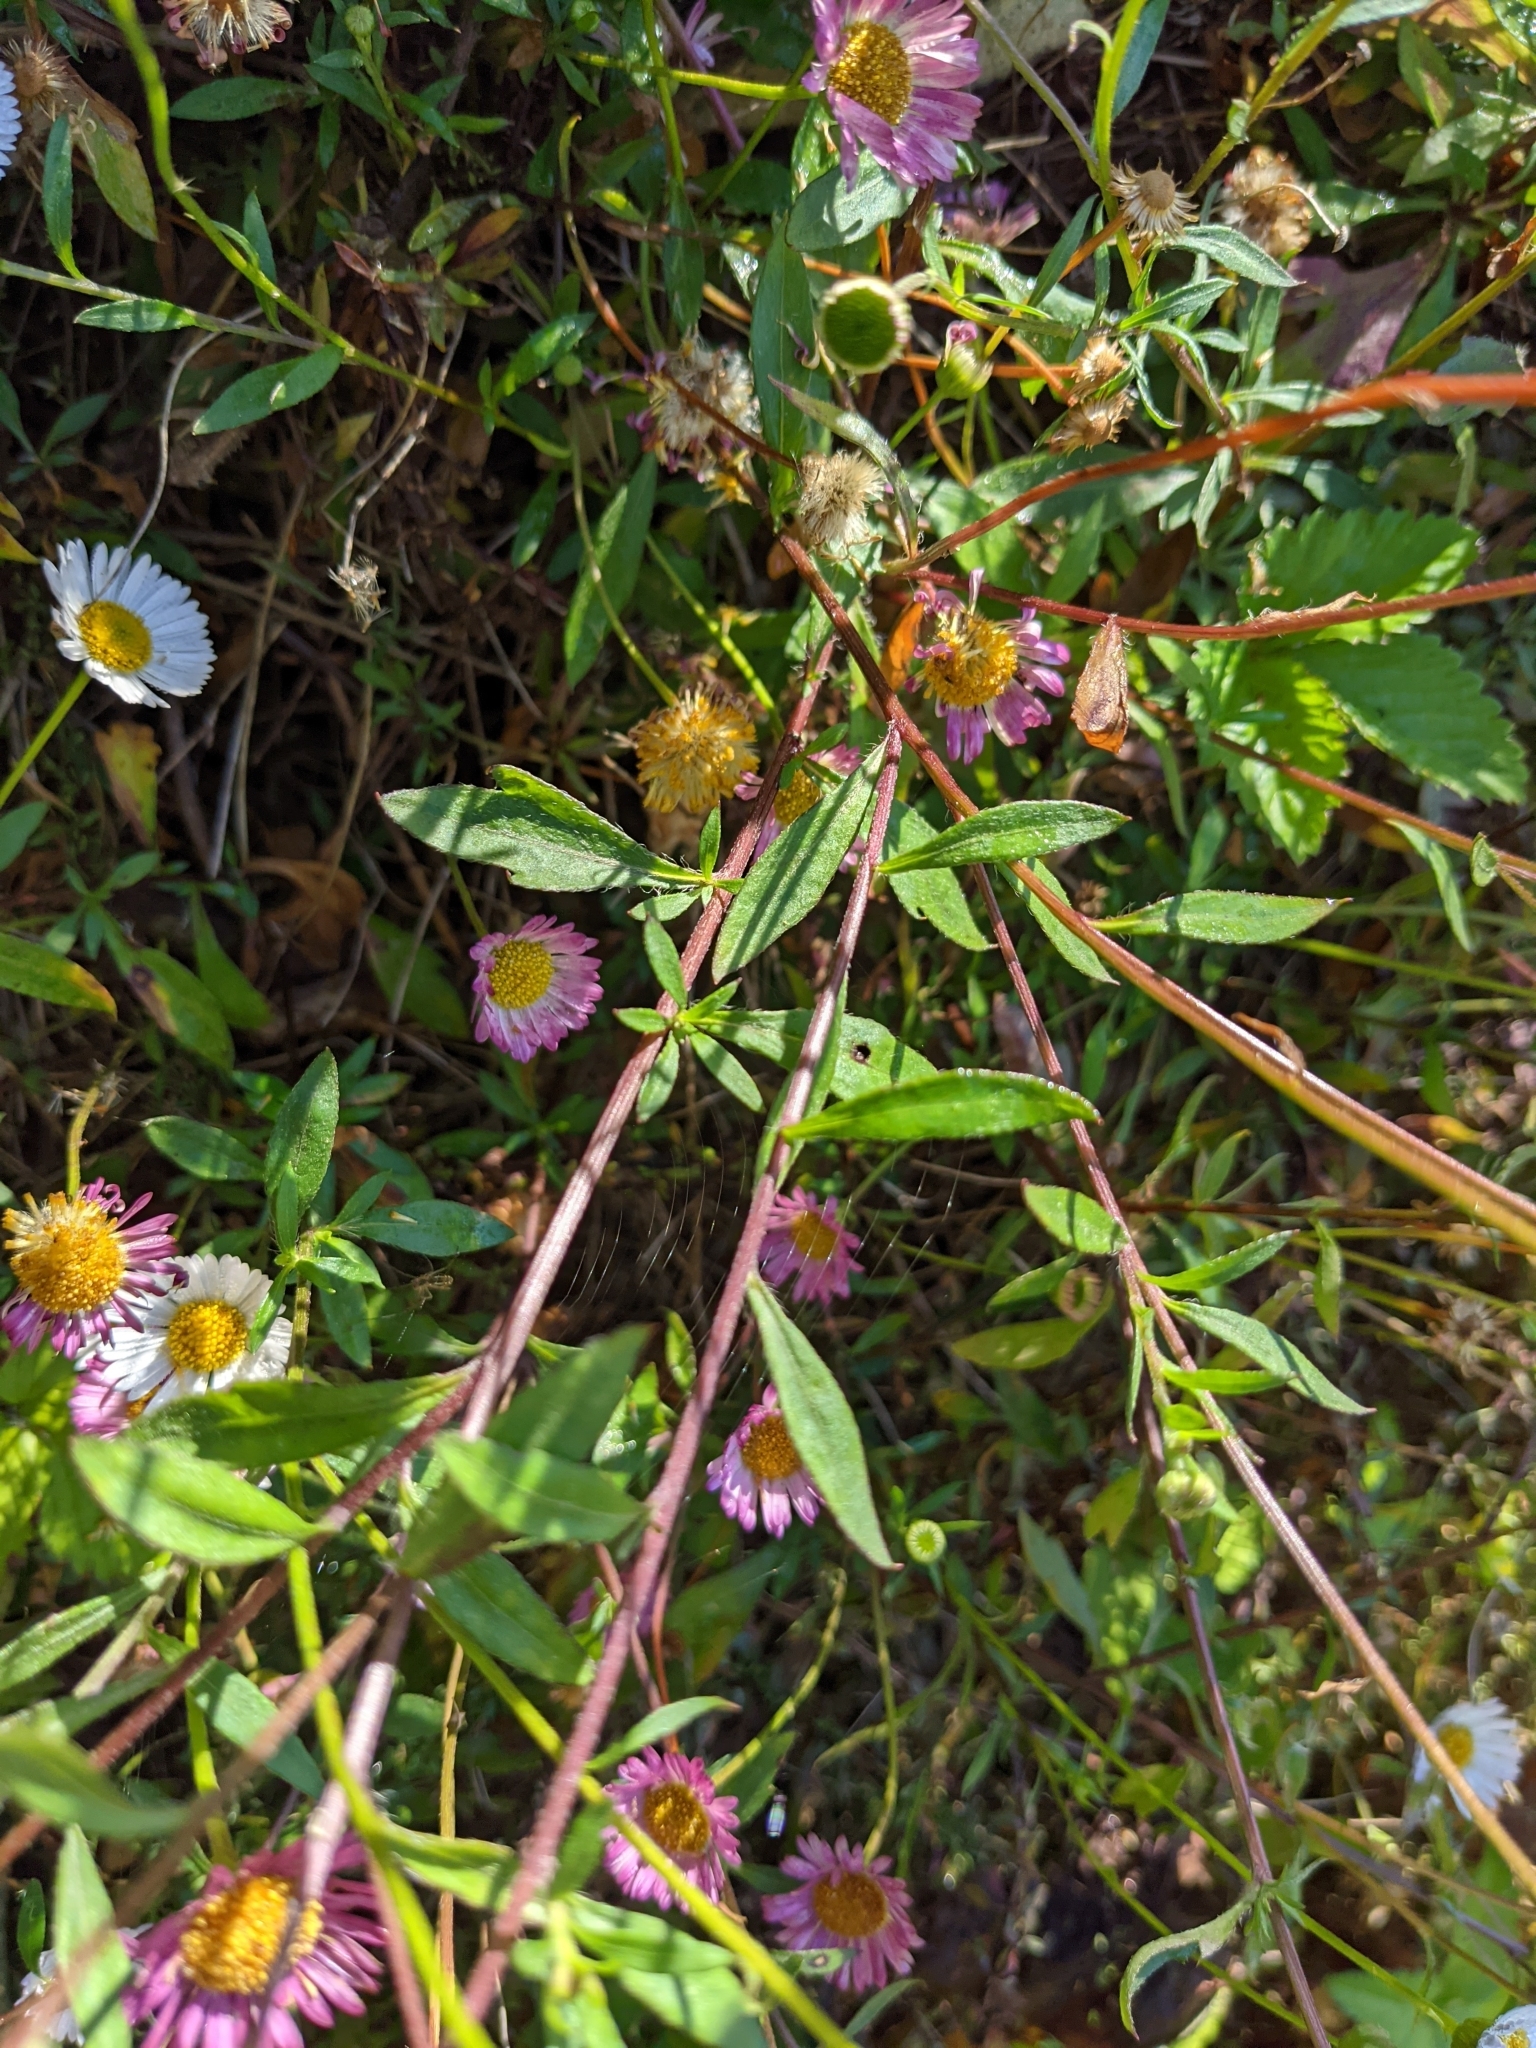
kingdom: Plantae
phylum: Tracheophyta
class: Magnoliopsida
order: Asterales
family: Asteraceae
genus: Erigeron
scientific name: Erigeron karvinskianus
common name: Mexican fleabane
